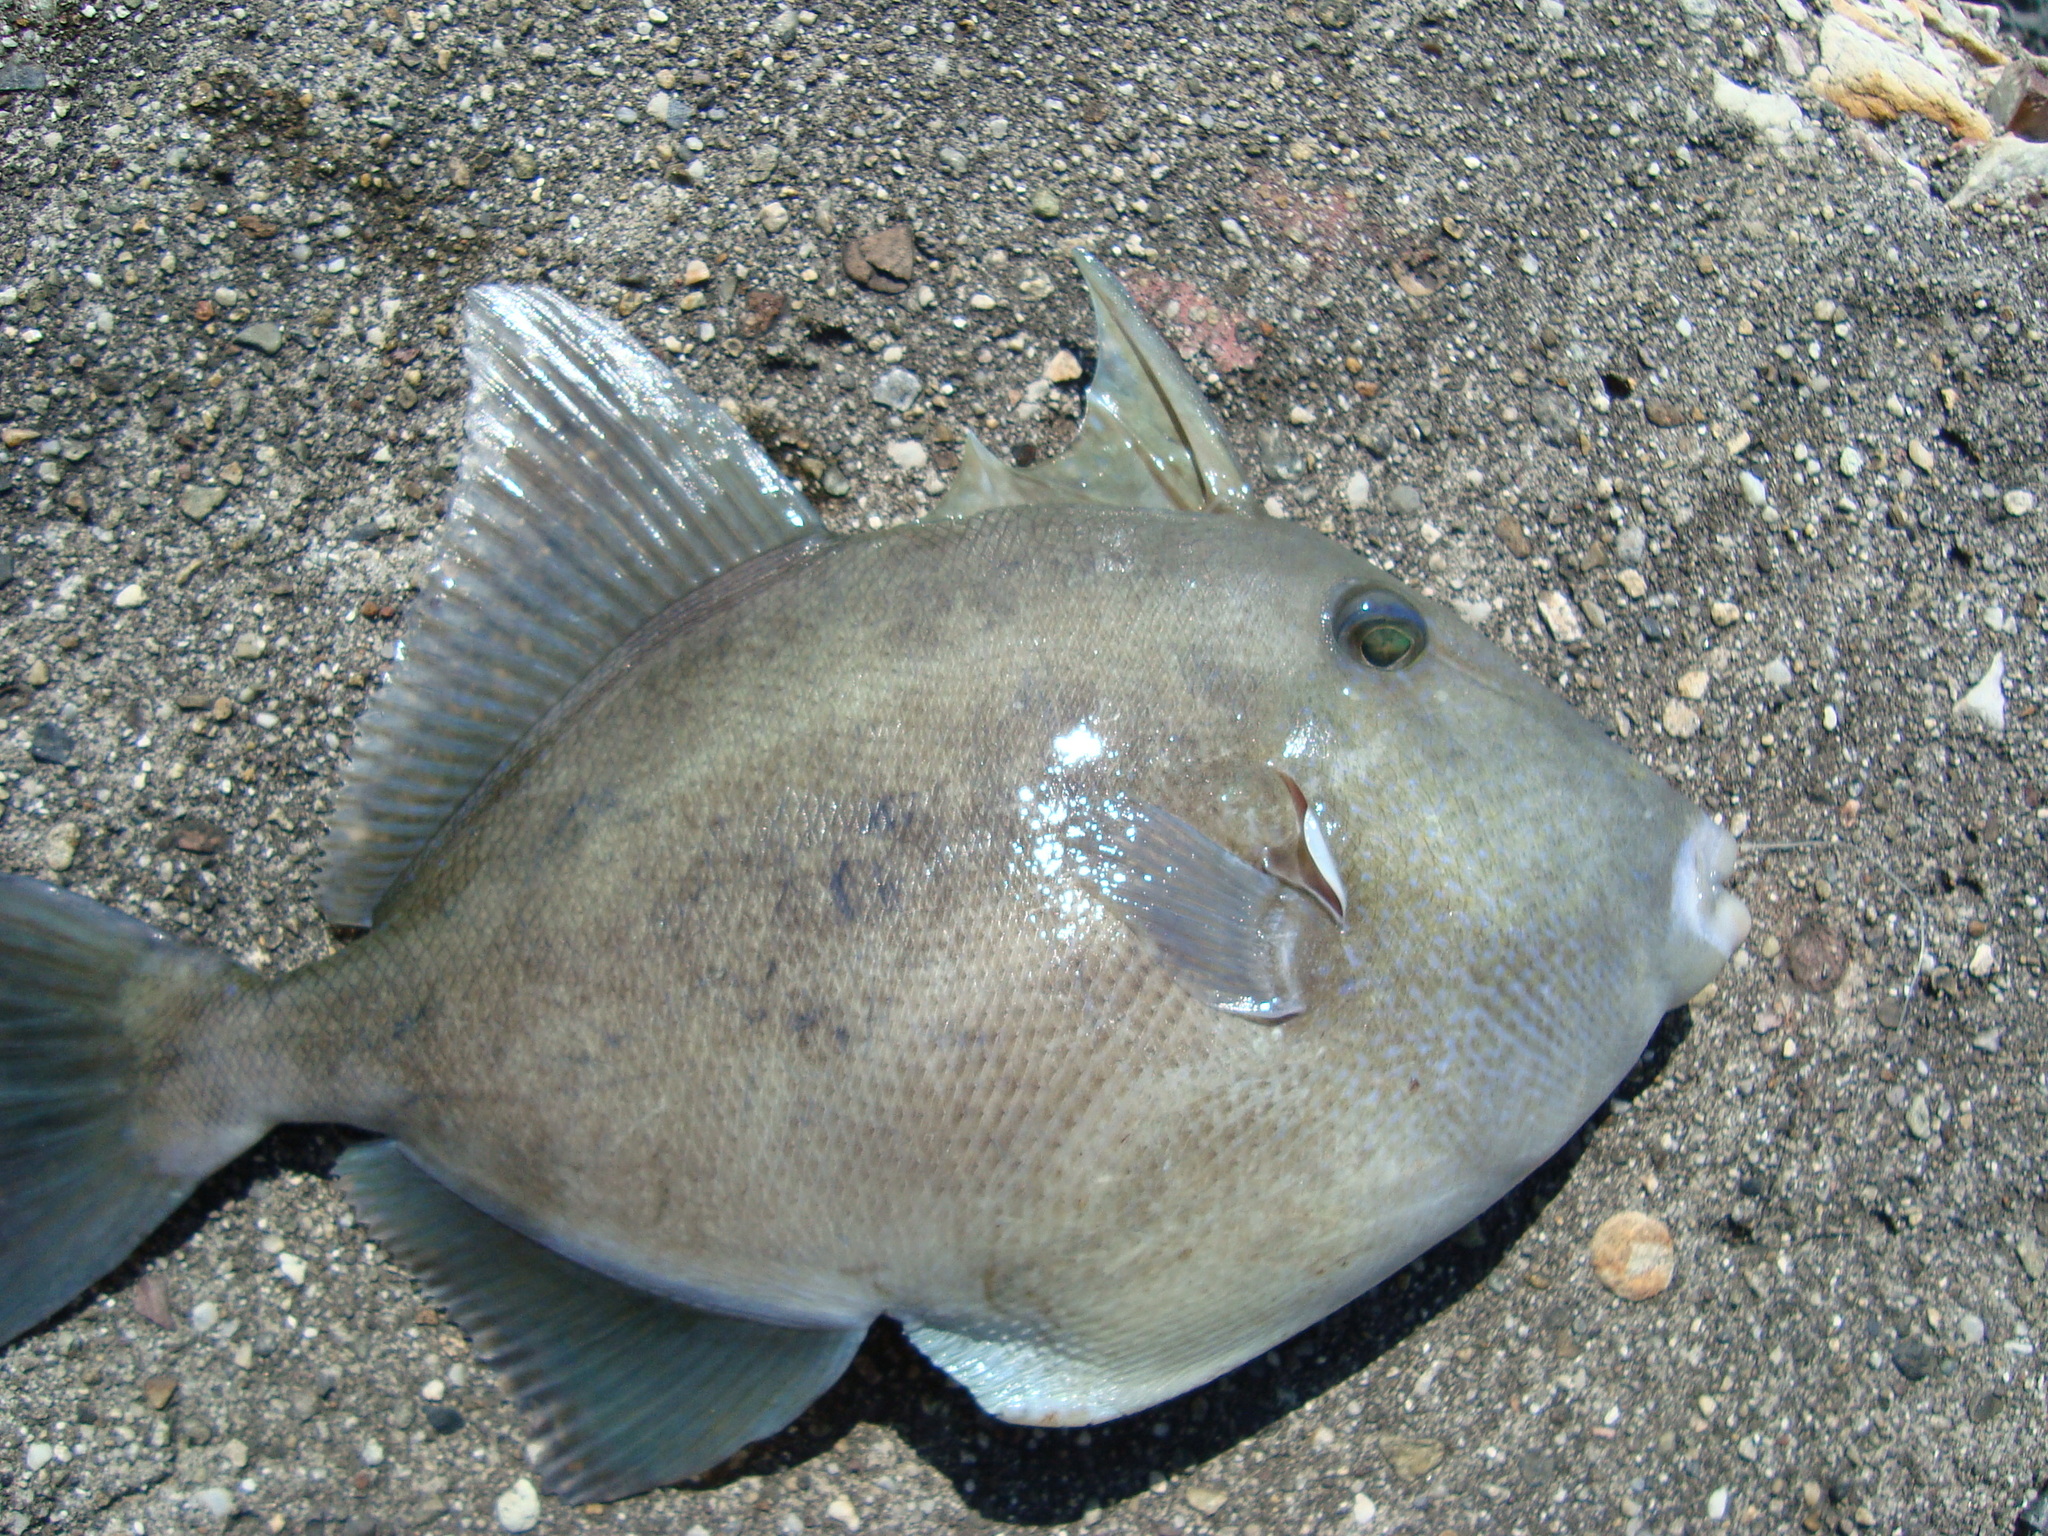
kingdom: Animalia
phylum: Chordata
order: Tetraodontiformes
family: Balistidae
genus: Balistes
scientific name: Balistes polylepis
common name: Finescale triggerfish
